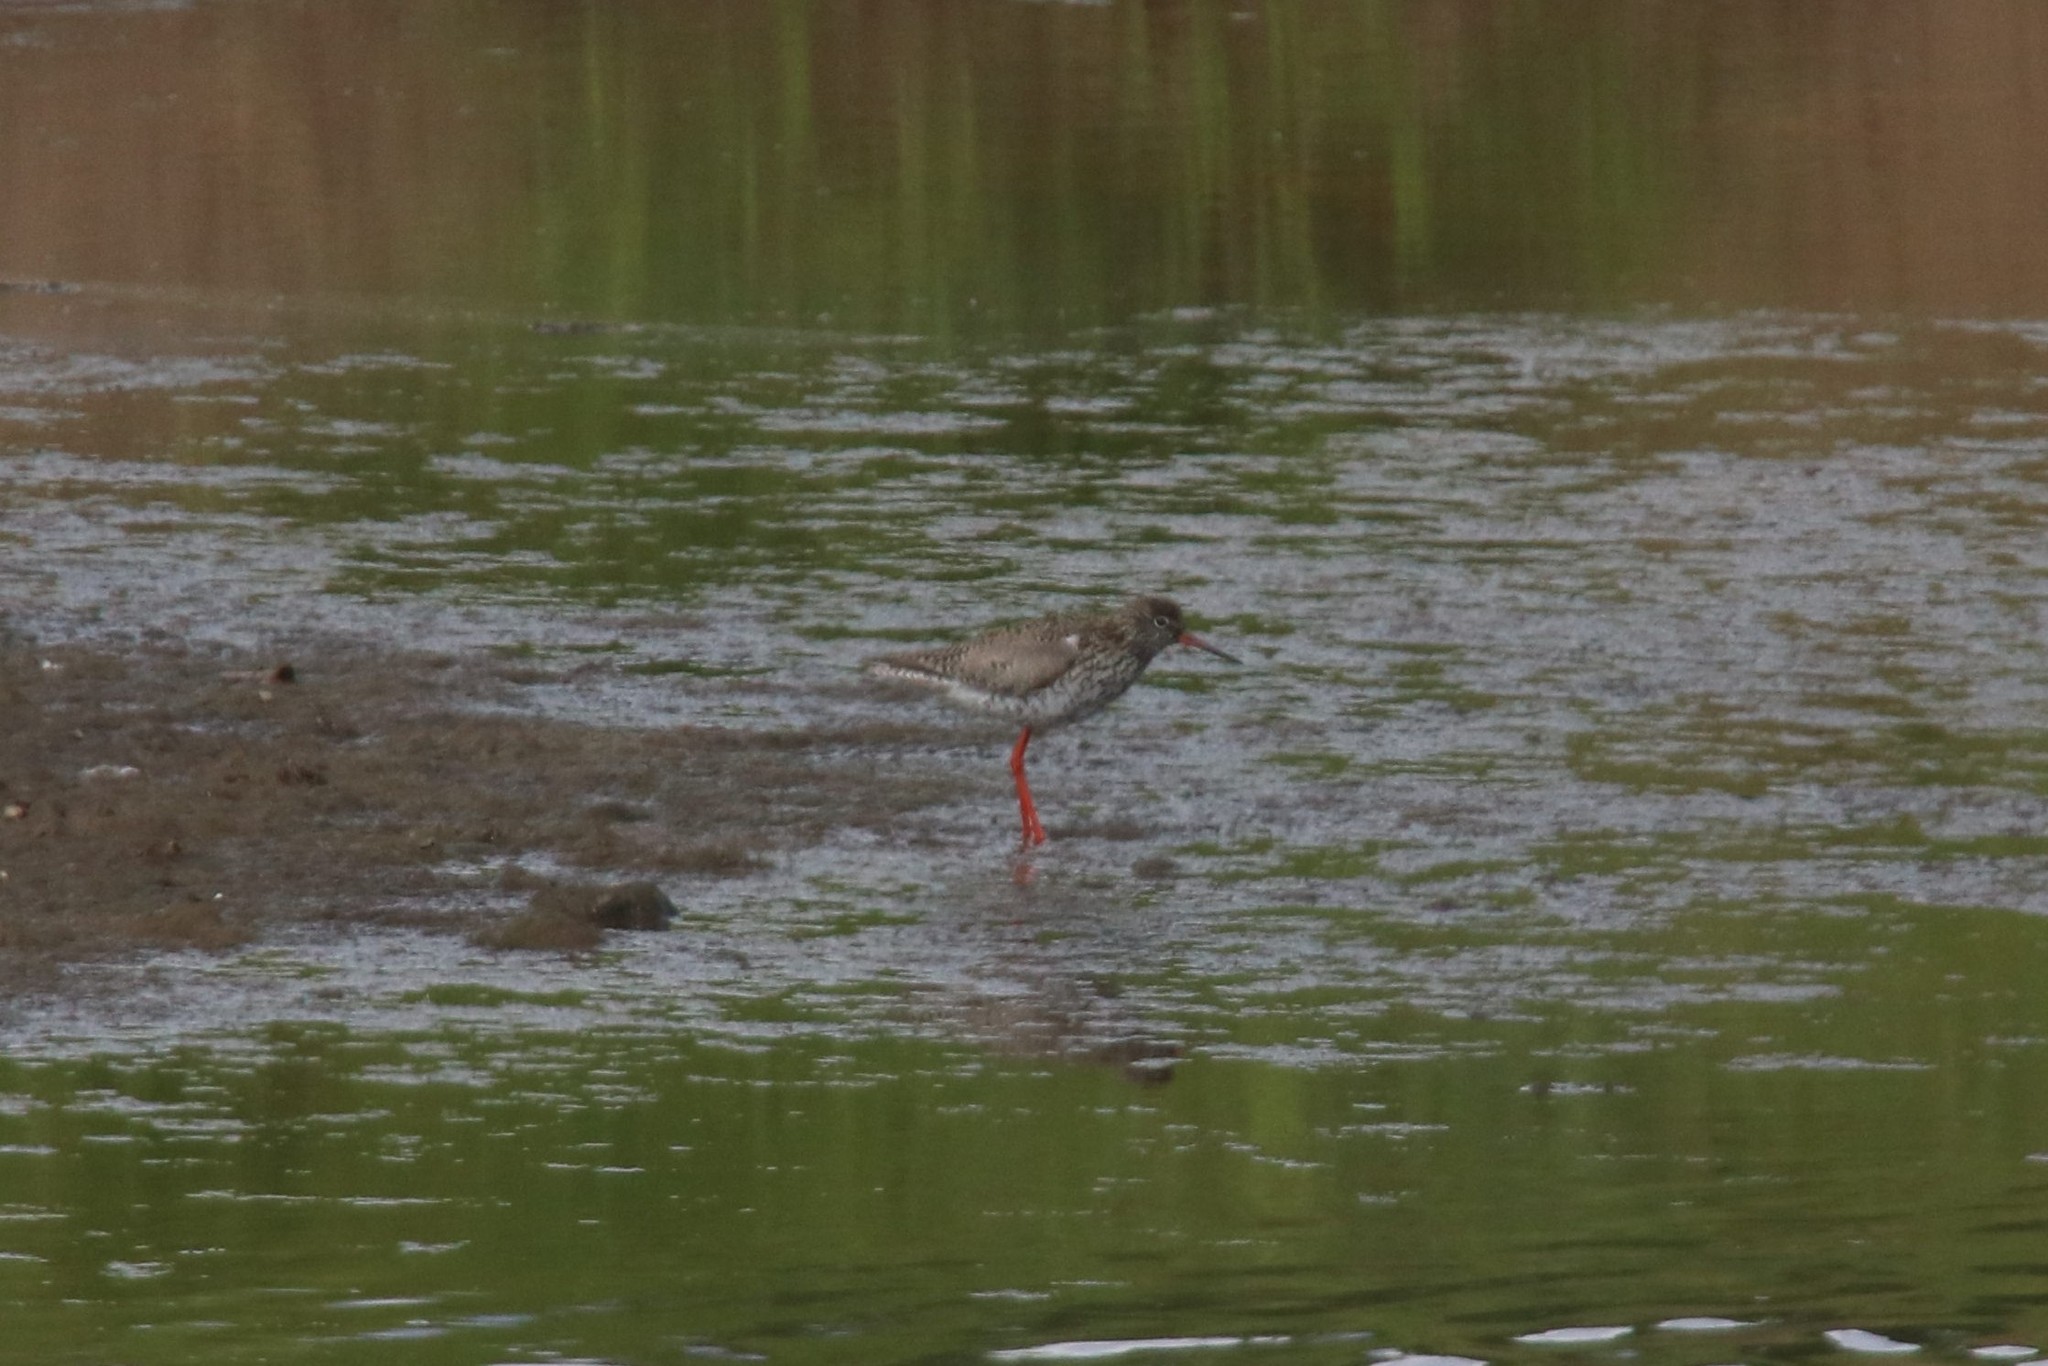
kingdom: Animalia
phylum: Chordata
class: Aves
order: Charadriiformes
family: Scolopacidae
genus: Tringa
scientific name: Tringa totanus
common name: Common redshank
